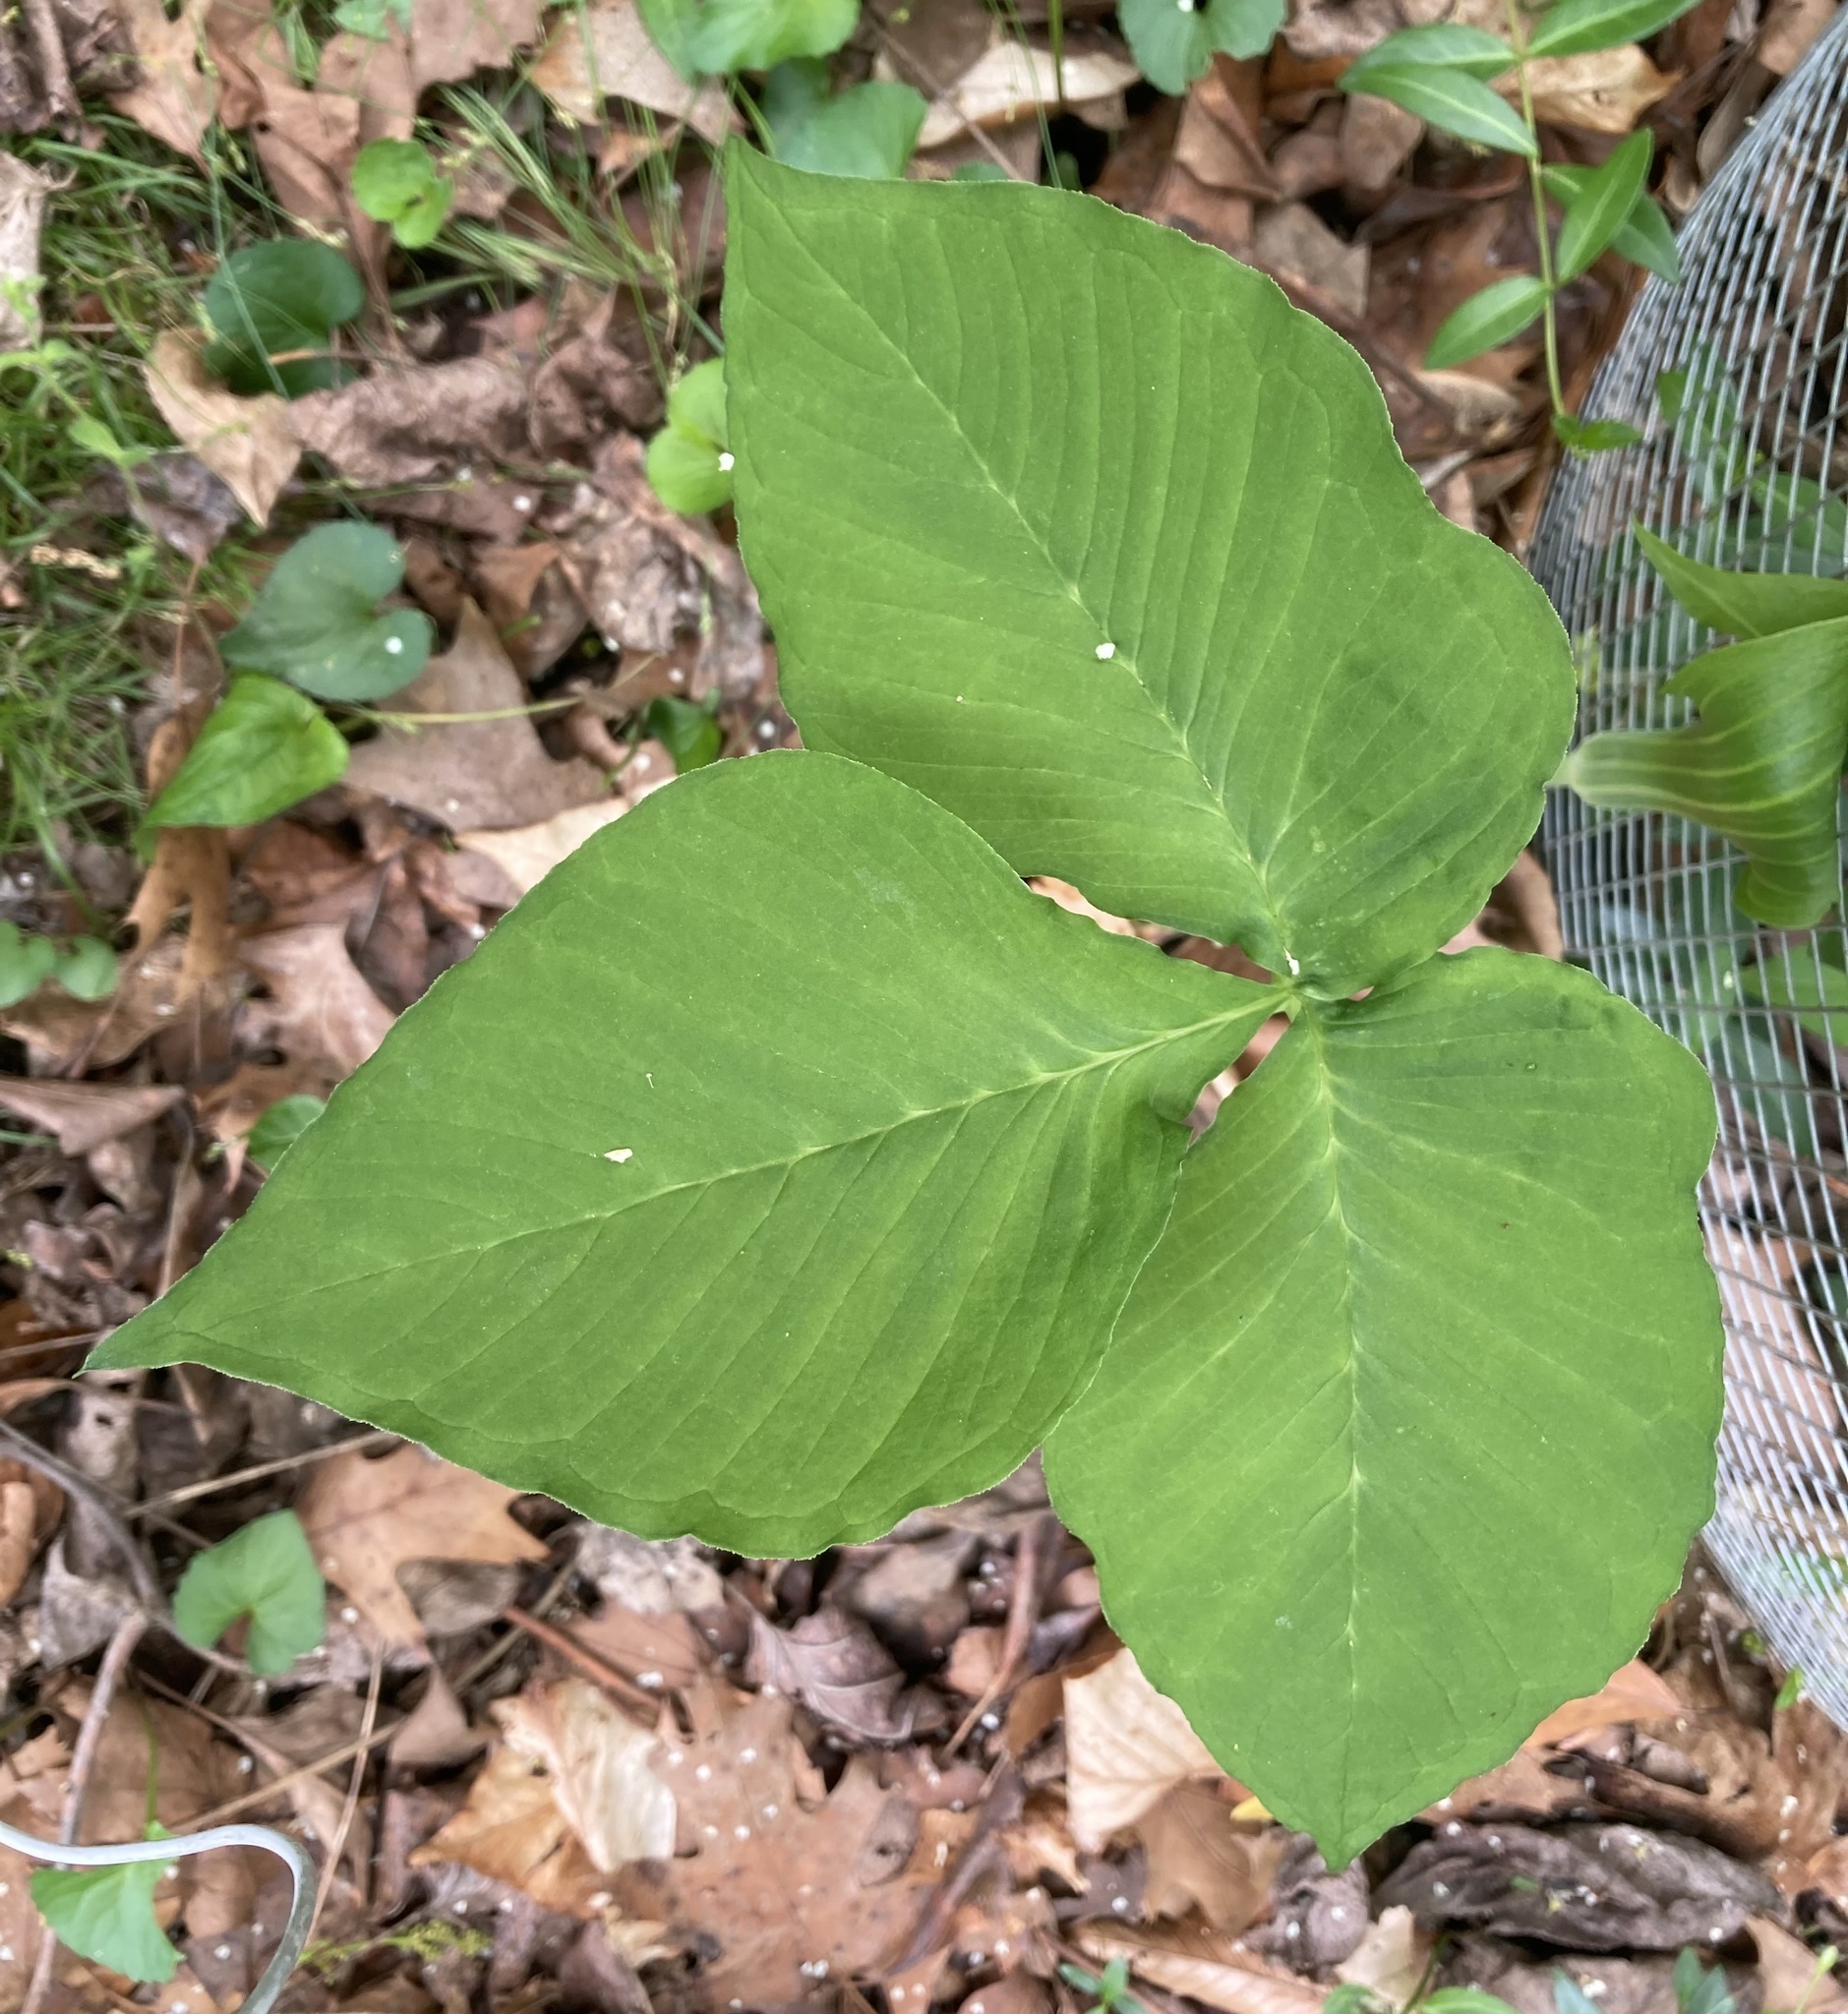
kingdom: Plantae
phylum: Tracheophyta
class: Liliopsida
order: Alismatales
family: Araceae
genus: Arisaema
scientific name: Arisaema triphyllum
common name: Jack-in-the-pulpit
